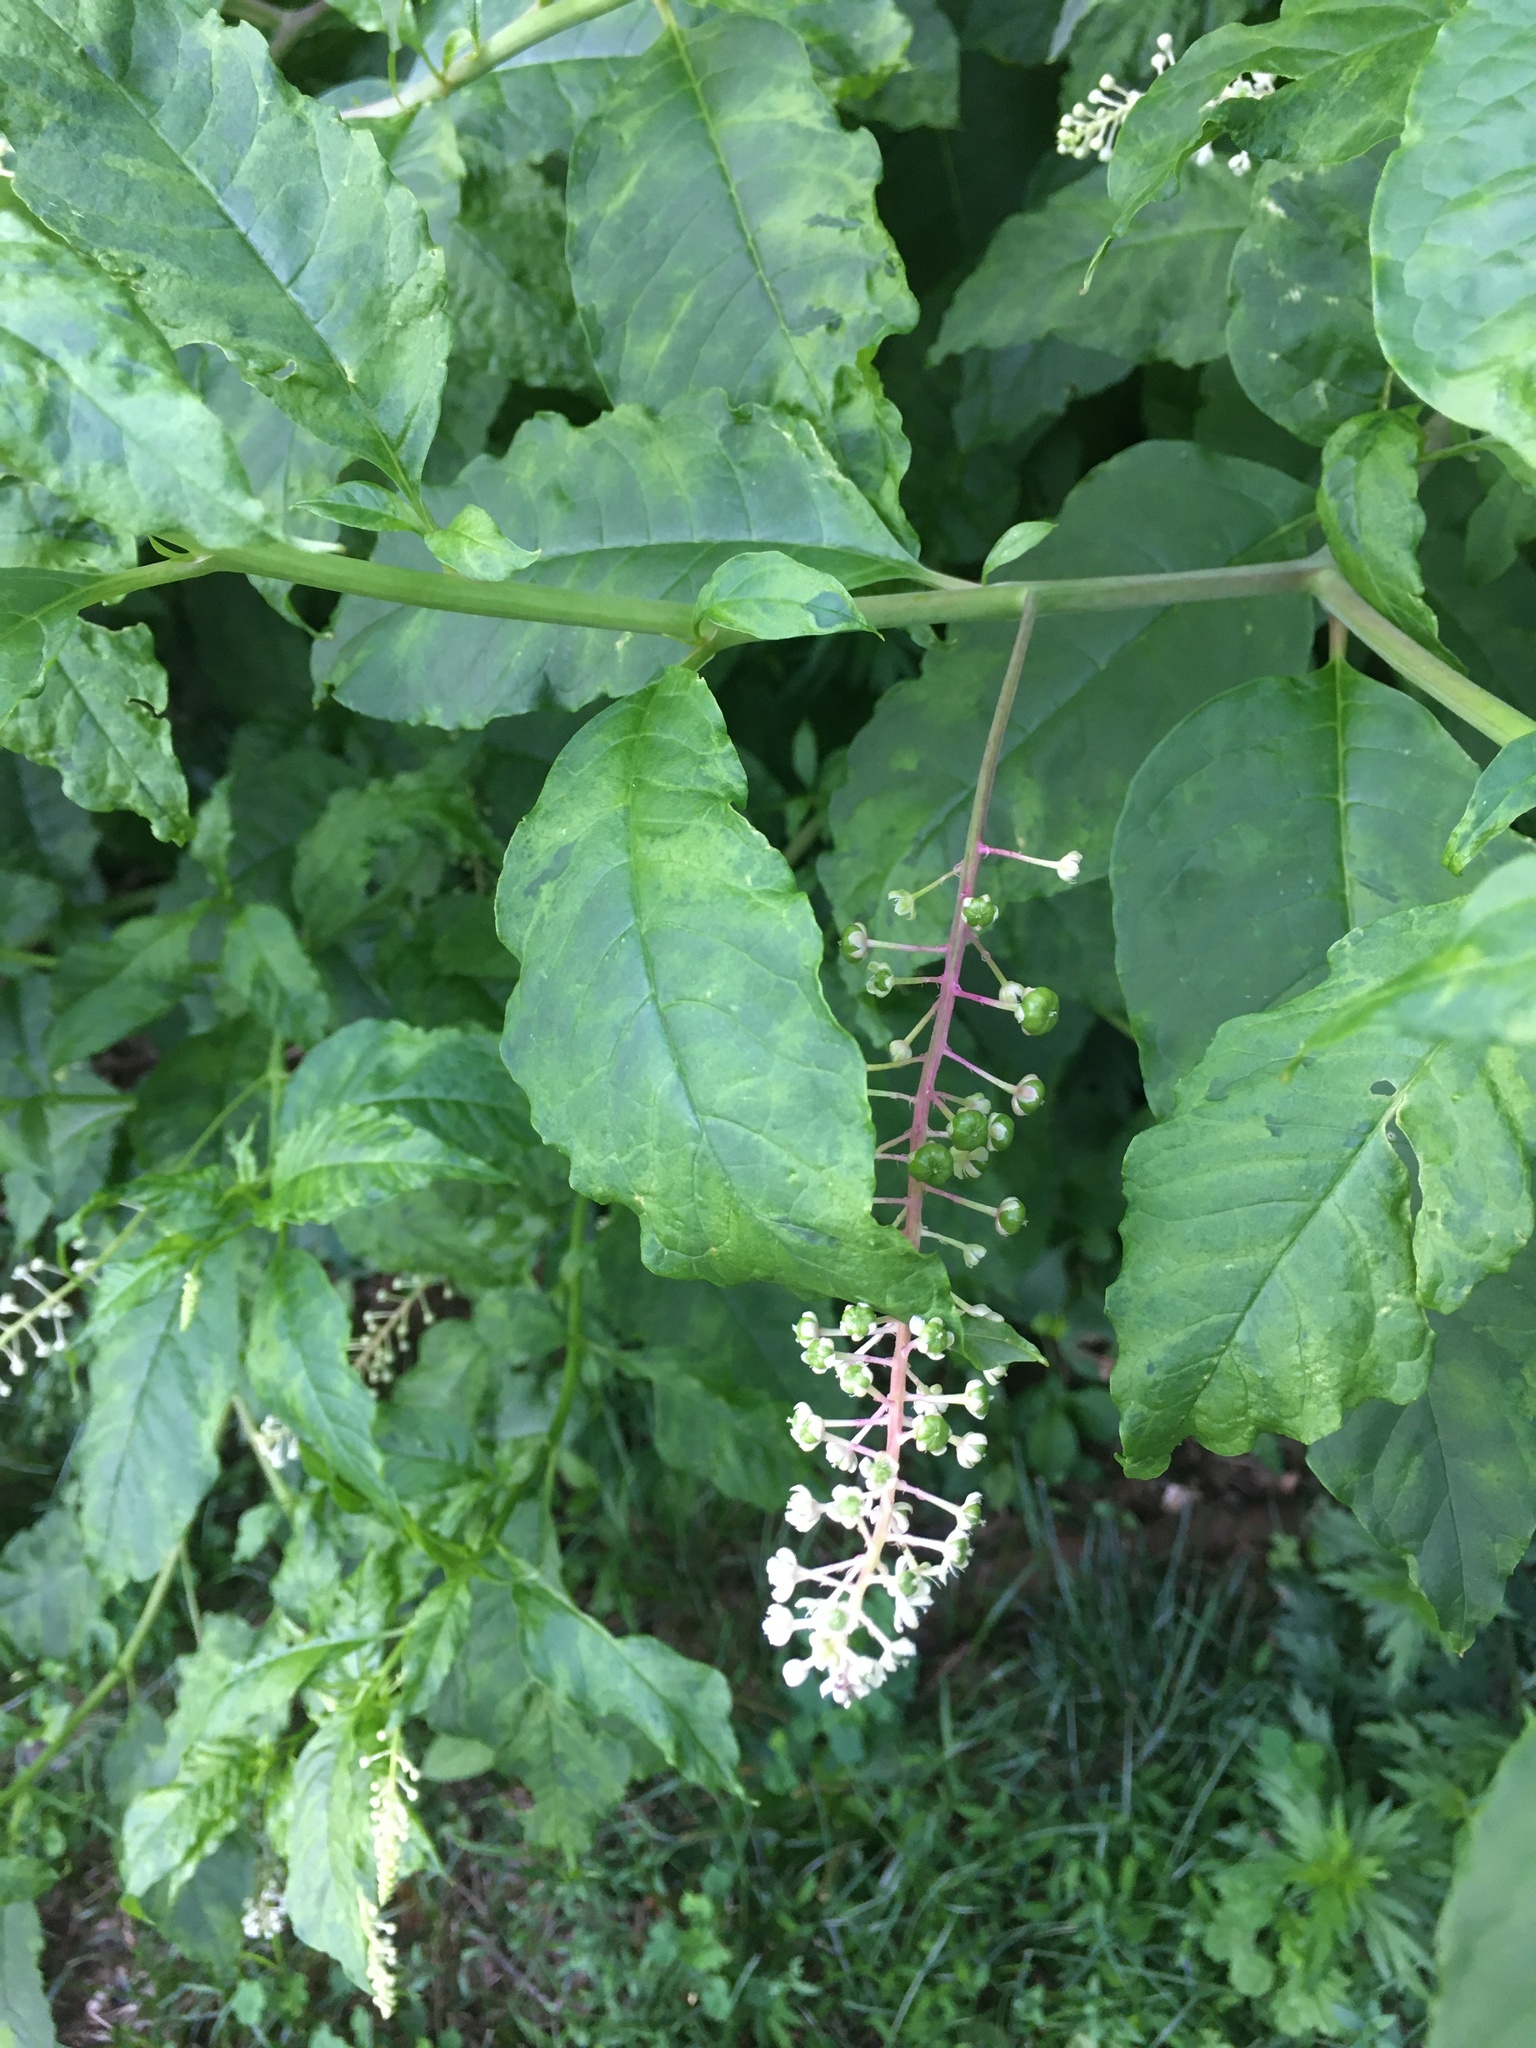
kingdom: Plantae
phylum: Tracheophyta
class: Magnoliopsida
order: Caryophyllales
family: Phytolaccaceae
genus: Phytolacca
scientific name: Phytolacca americana
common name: American pokeweed
